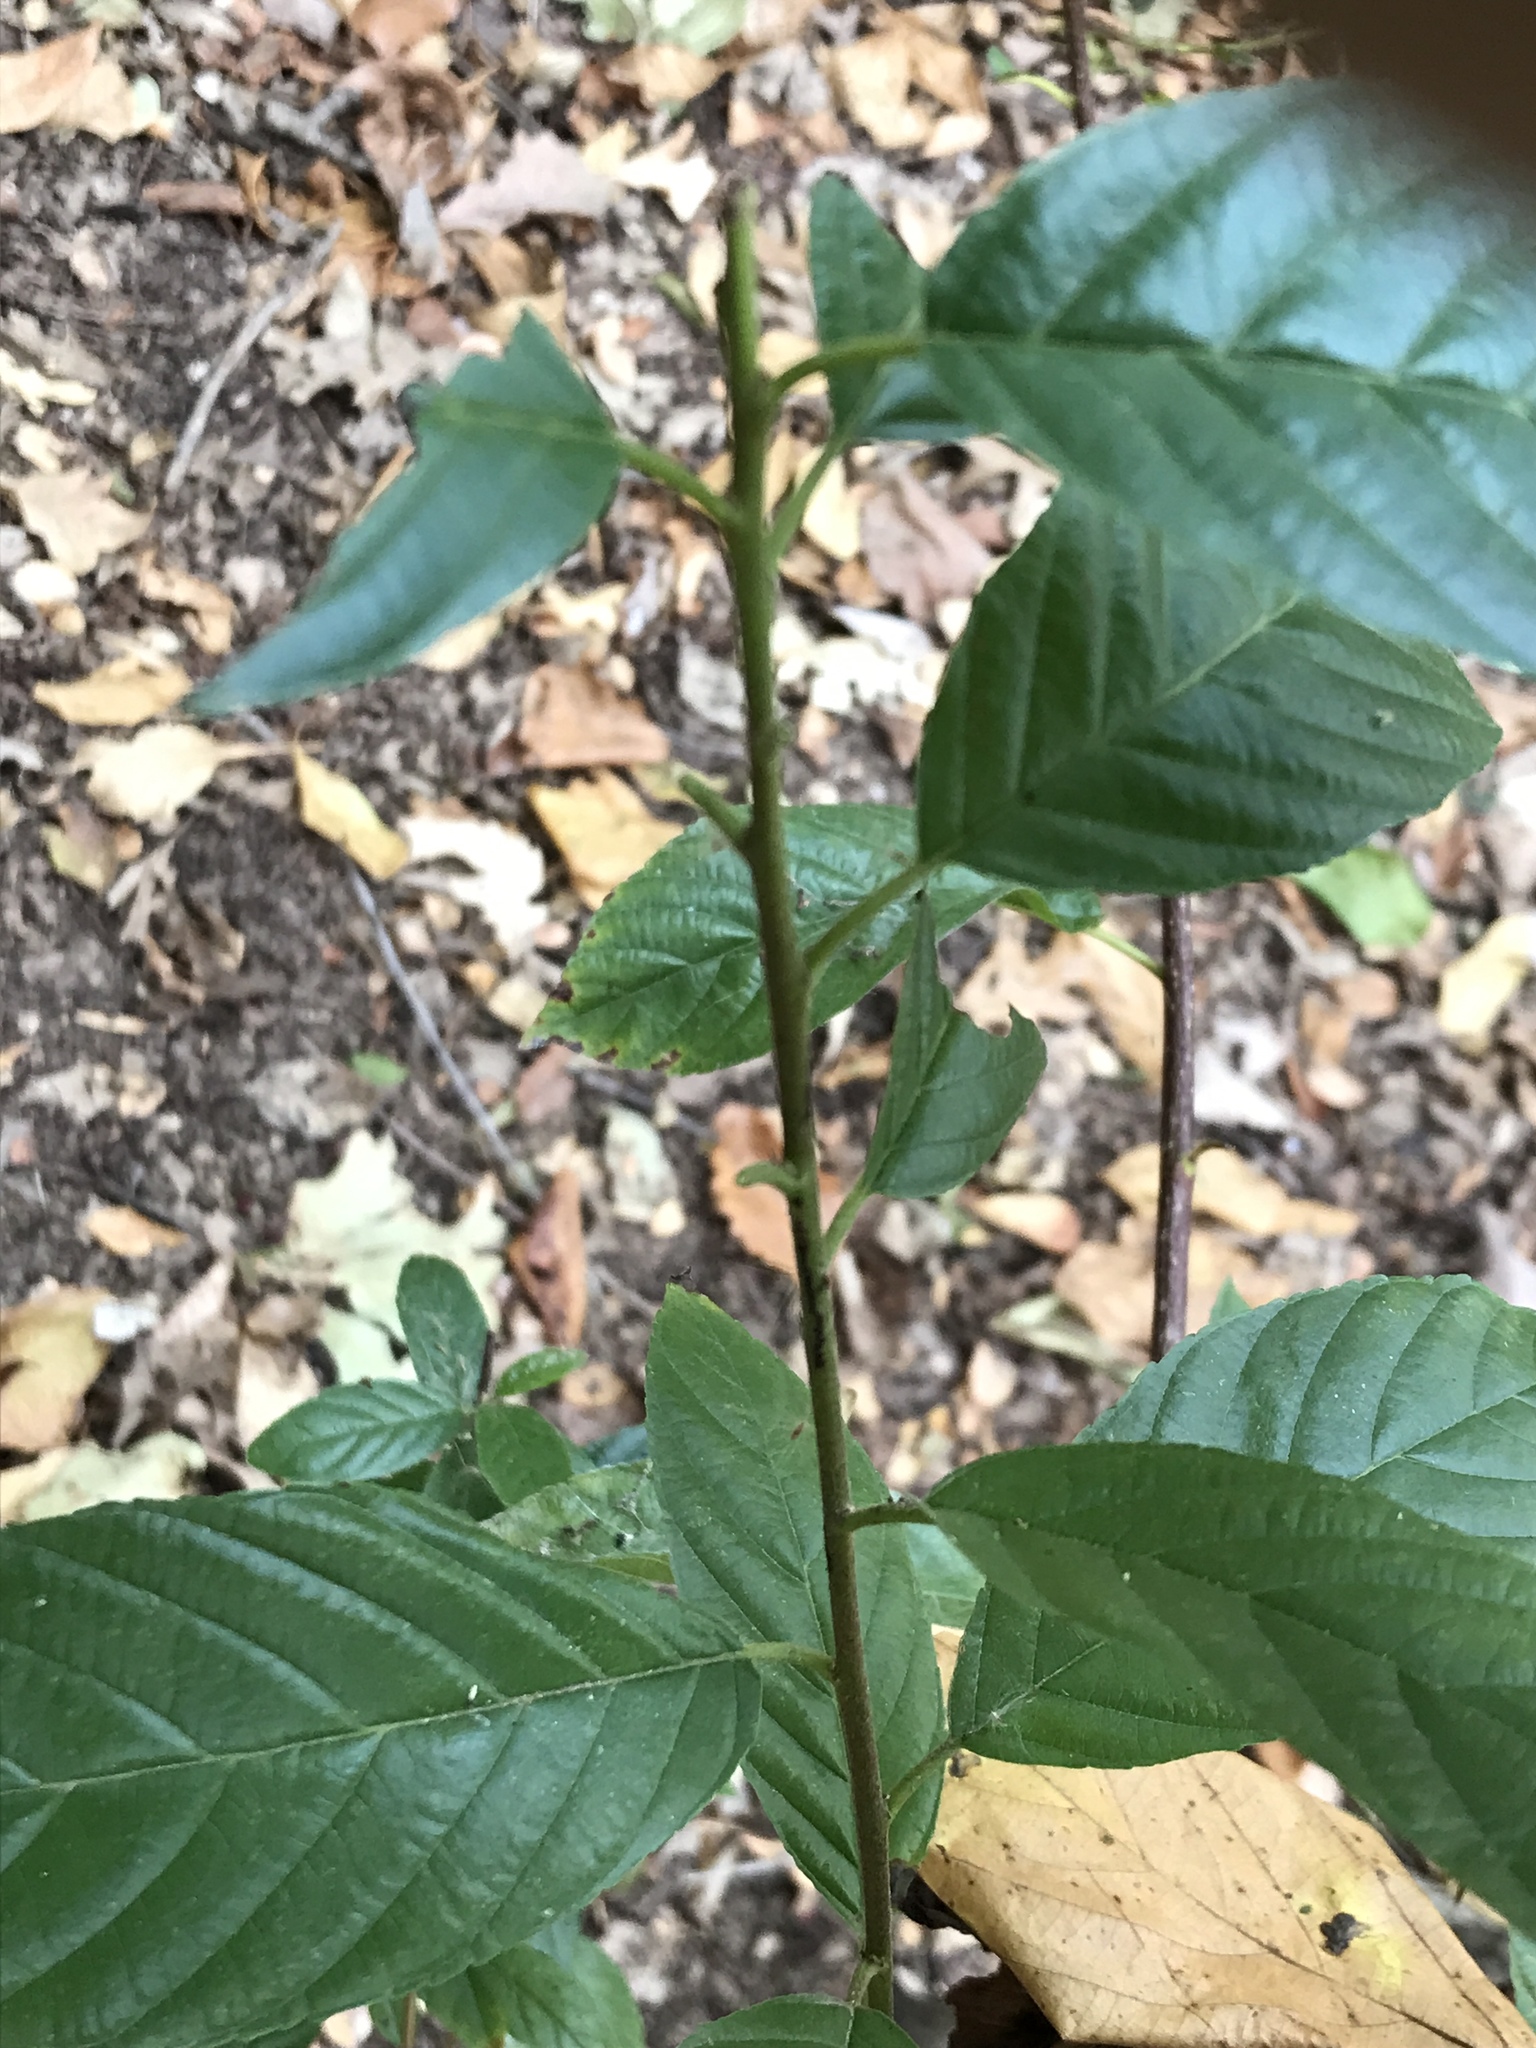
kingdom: Plantae
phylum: Tracheophyta
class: Magnoliopsida
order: Rosales
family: Rhamnaceae
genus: Frangula
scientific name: Frangula caroliniana
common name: Carolina buckthorn
